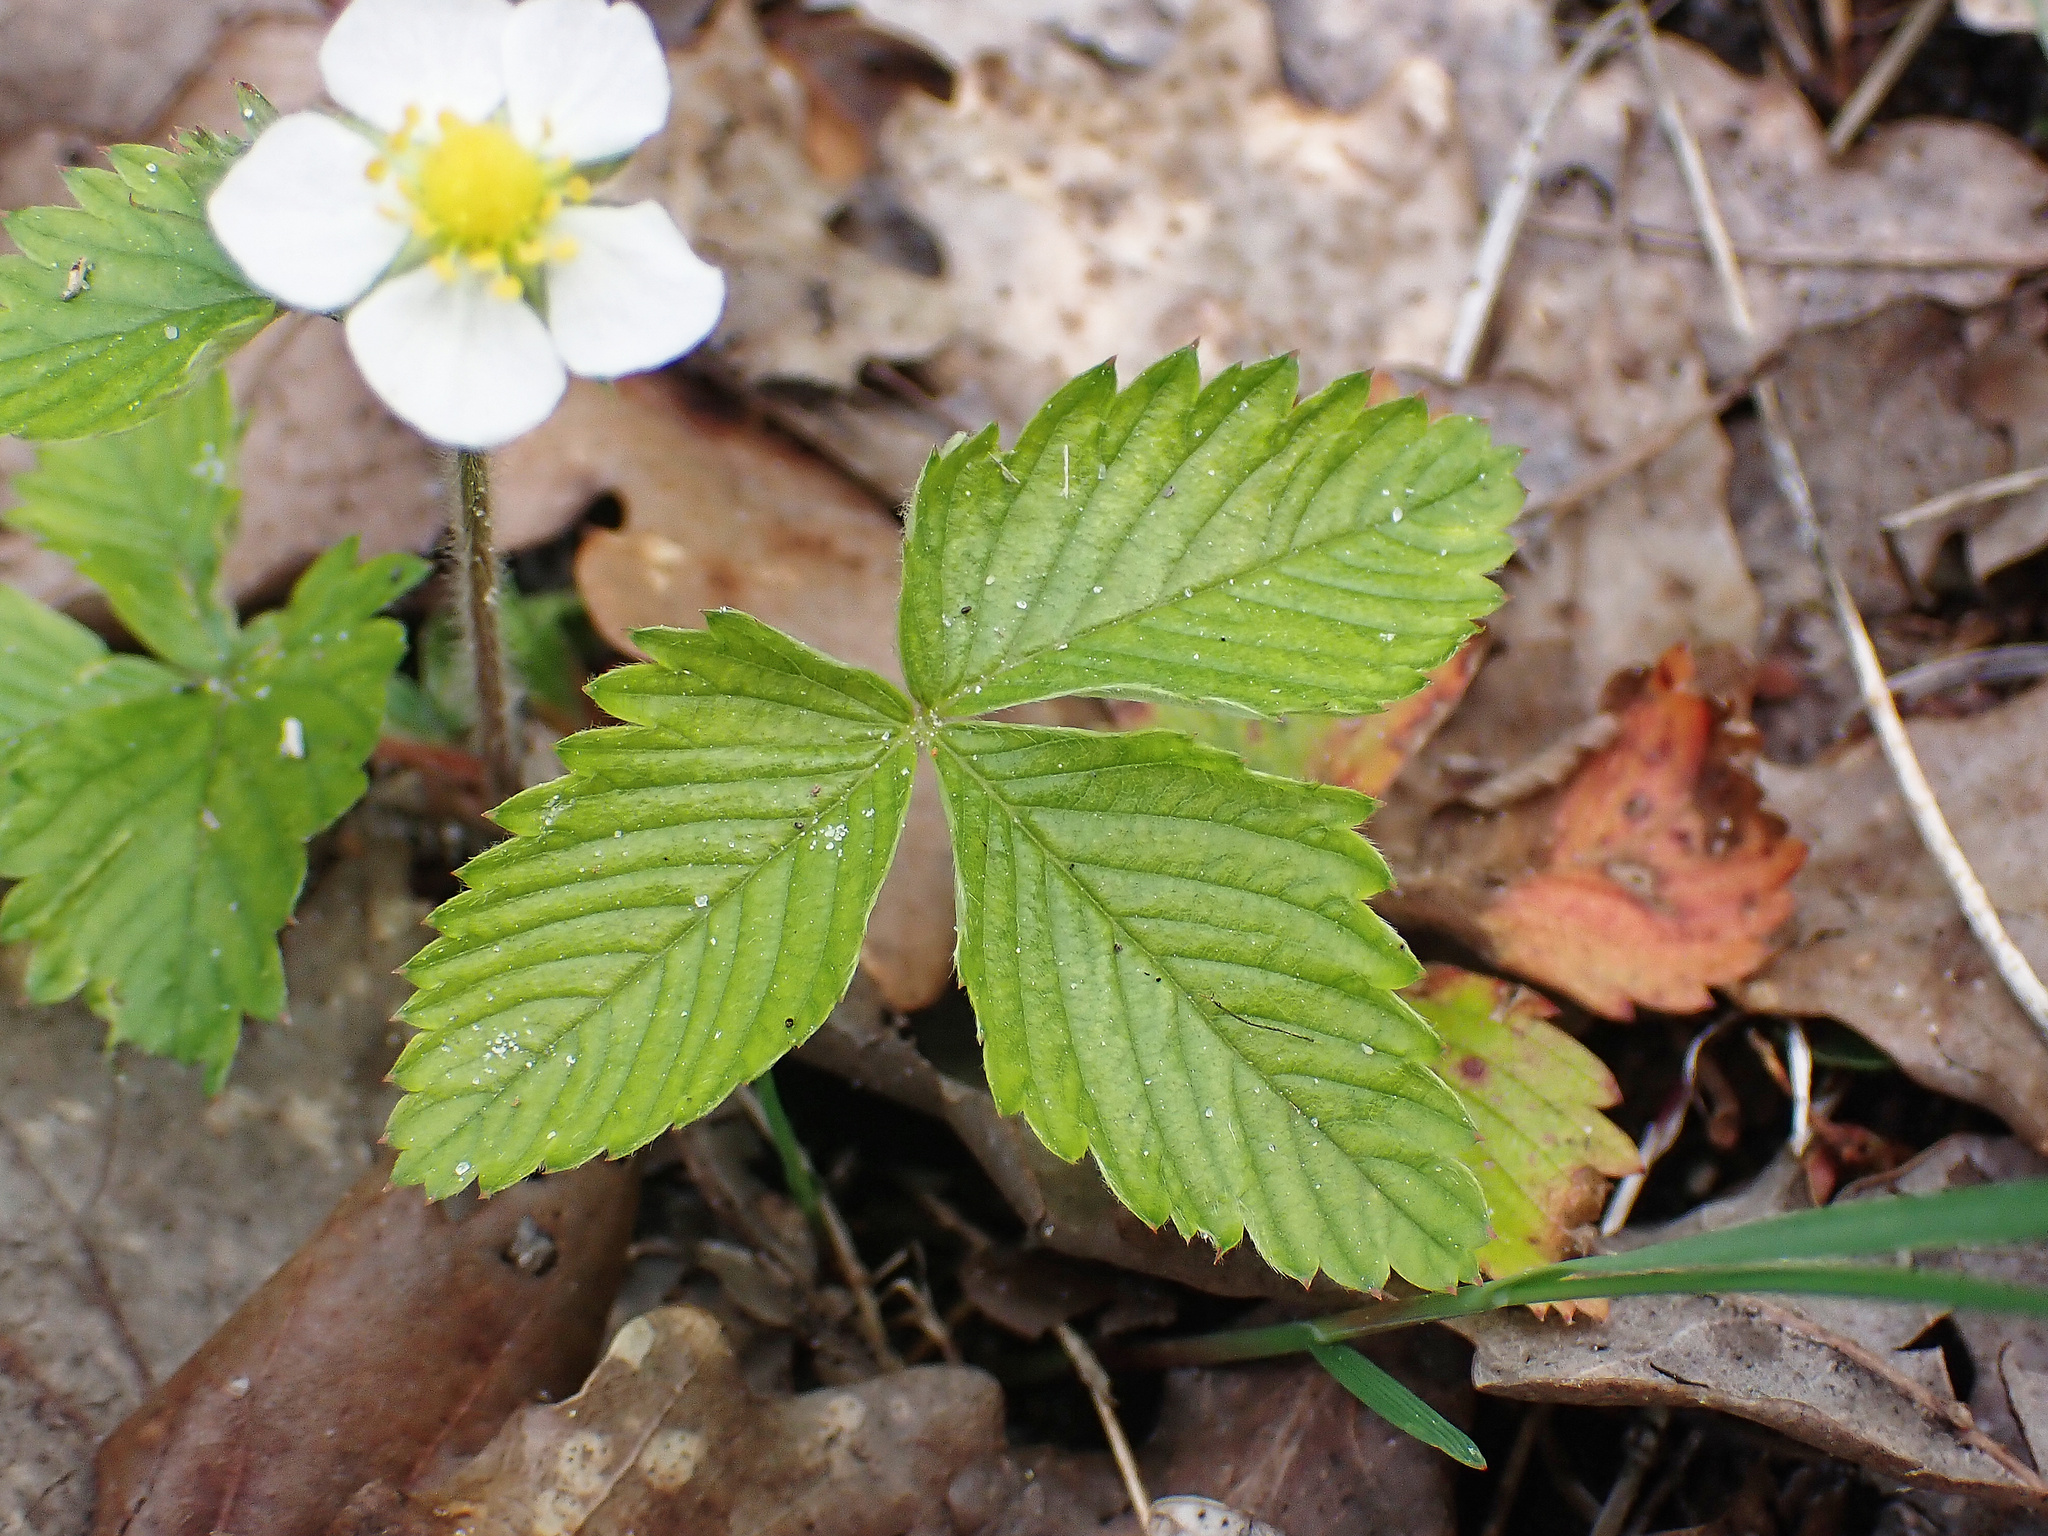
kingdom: Plantae
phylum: Tracheophyta
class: Magnoliopsida
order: Rosales
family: Rosaceae
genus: Fragaria
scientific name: Fragaria vesca
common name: Wild strawberry
